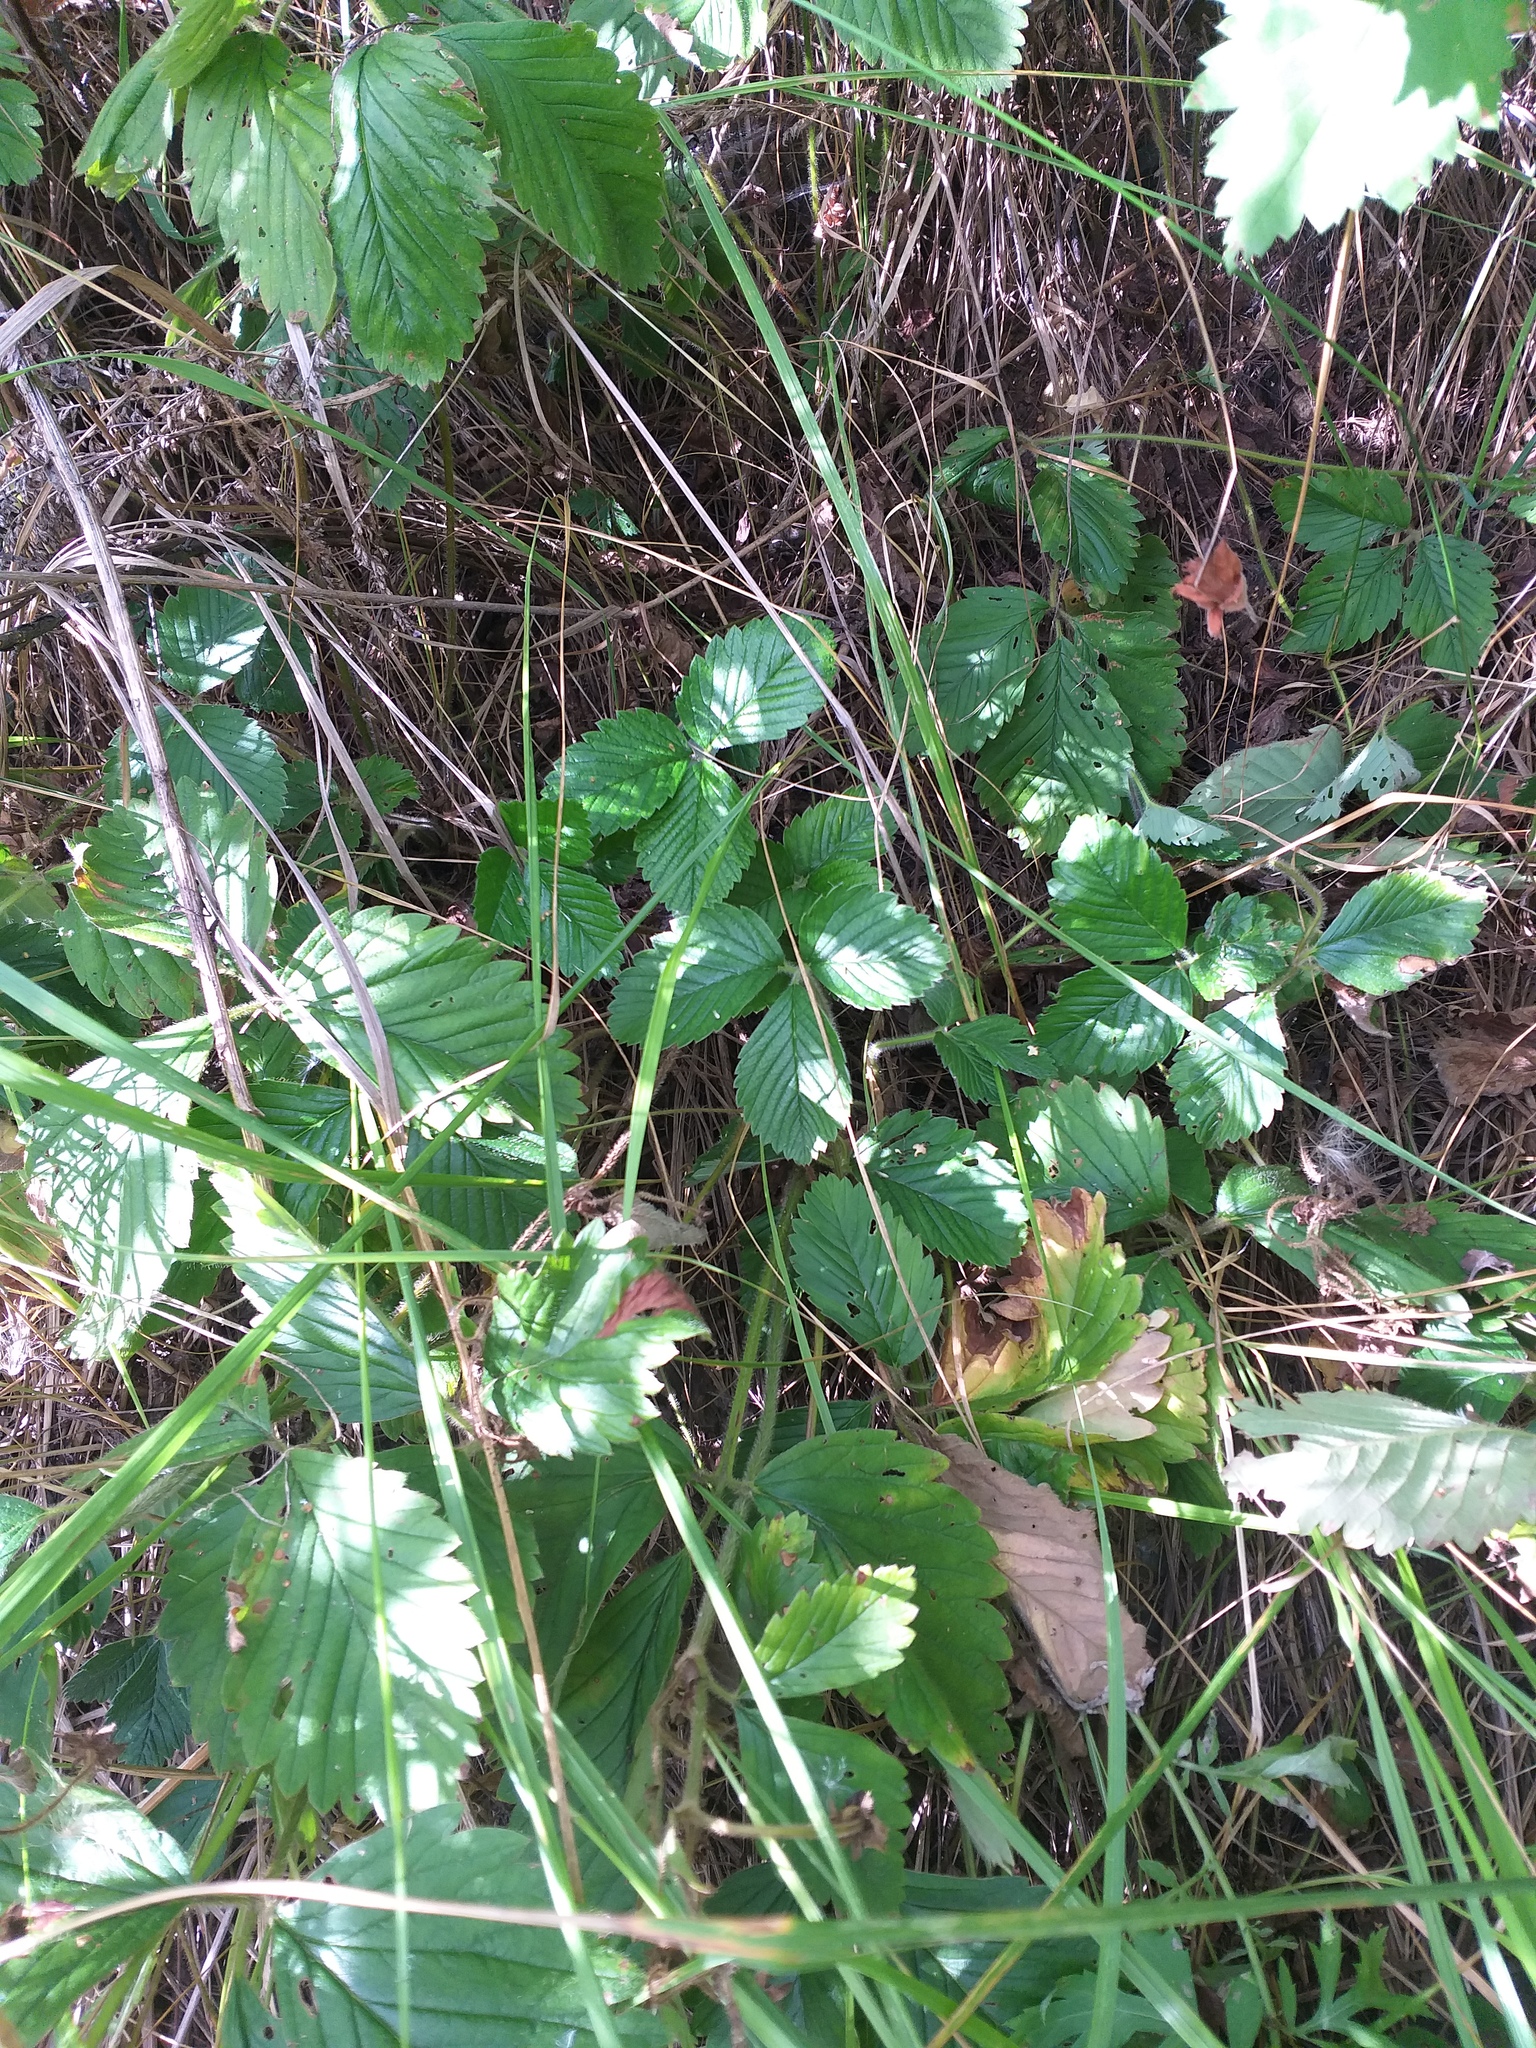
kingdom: Plantae
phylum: Tracheophyta
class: Magnoliopsida
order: Rosales
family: Rosaceae
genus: Fragaria
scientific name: Fragaria ananassa
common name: Garden strawberry
